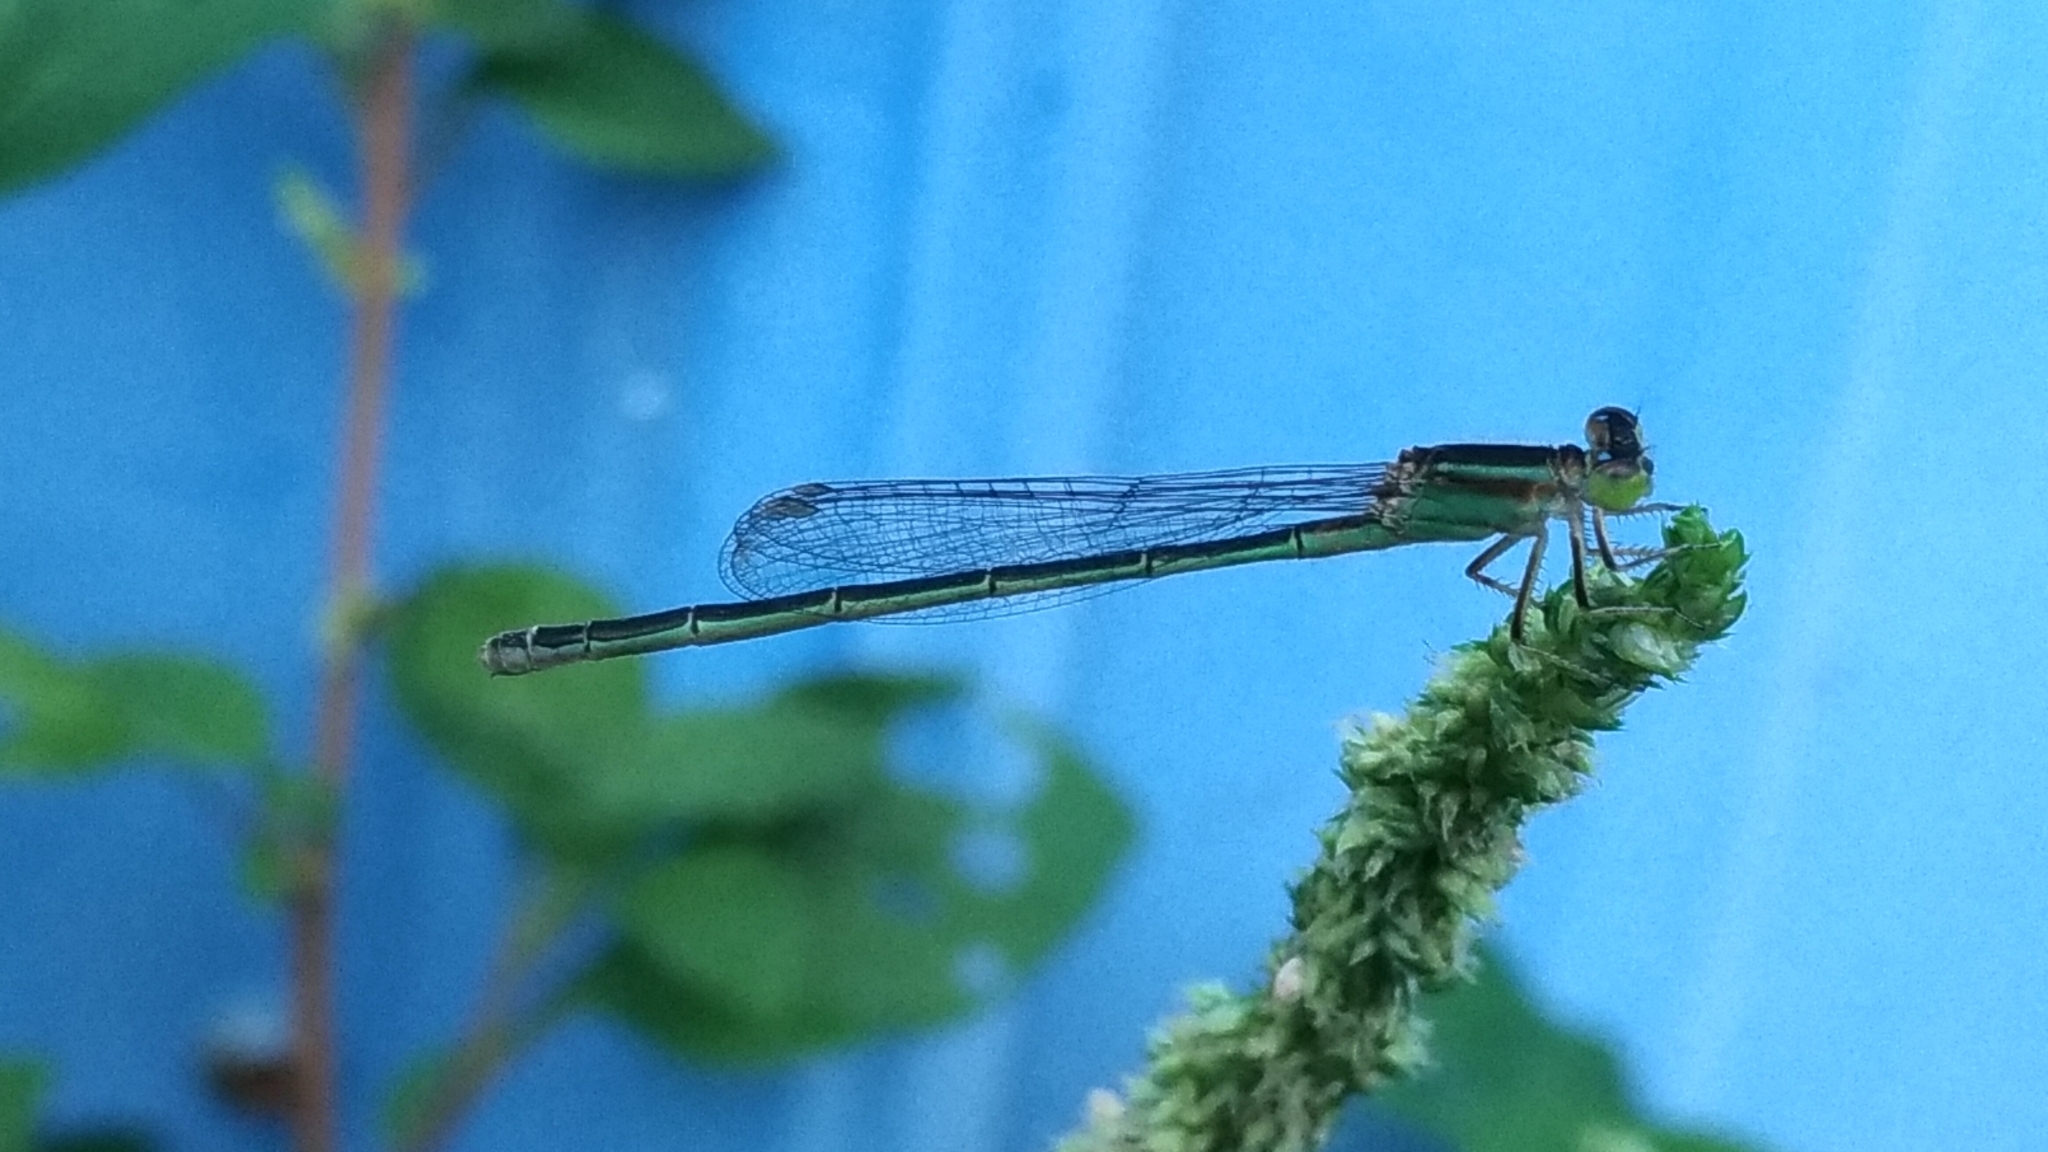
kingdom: Animalia
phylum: Arthropoda
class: Insecta
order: Odonata
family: Coenagrionidae
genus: Ischnura
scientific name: Ischnura senegalensis
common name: Tropical bluetail
